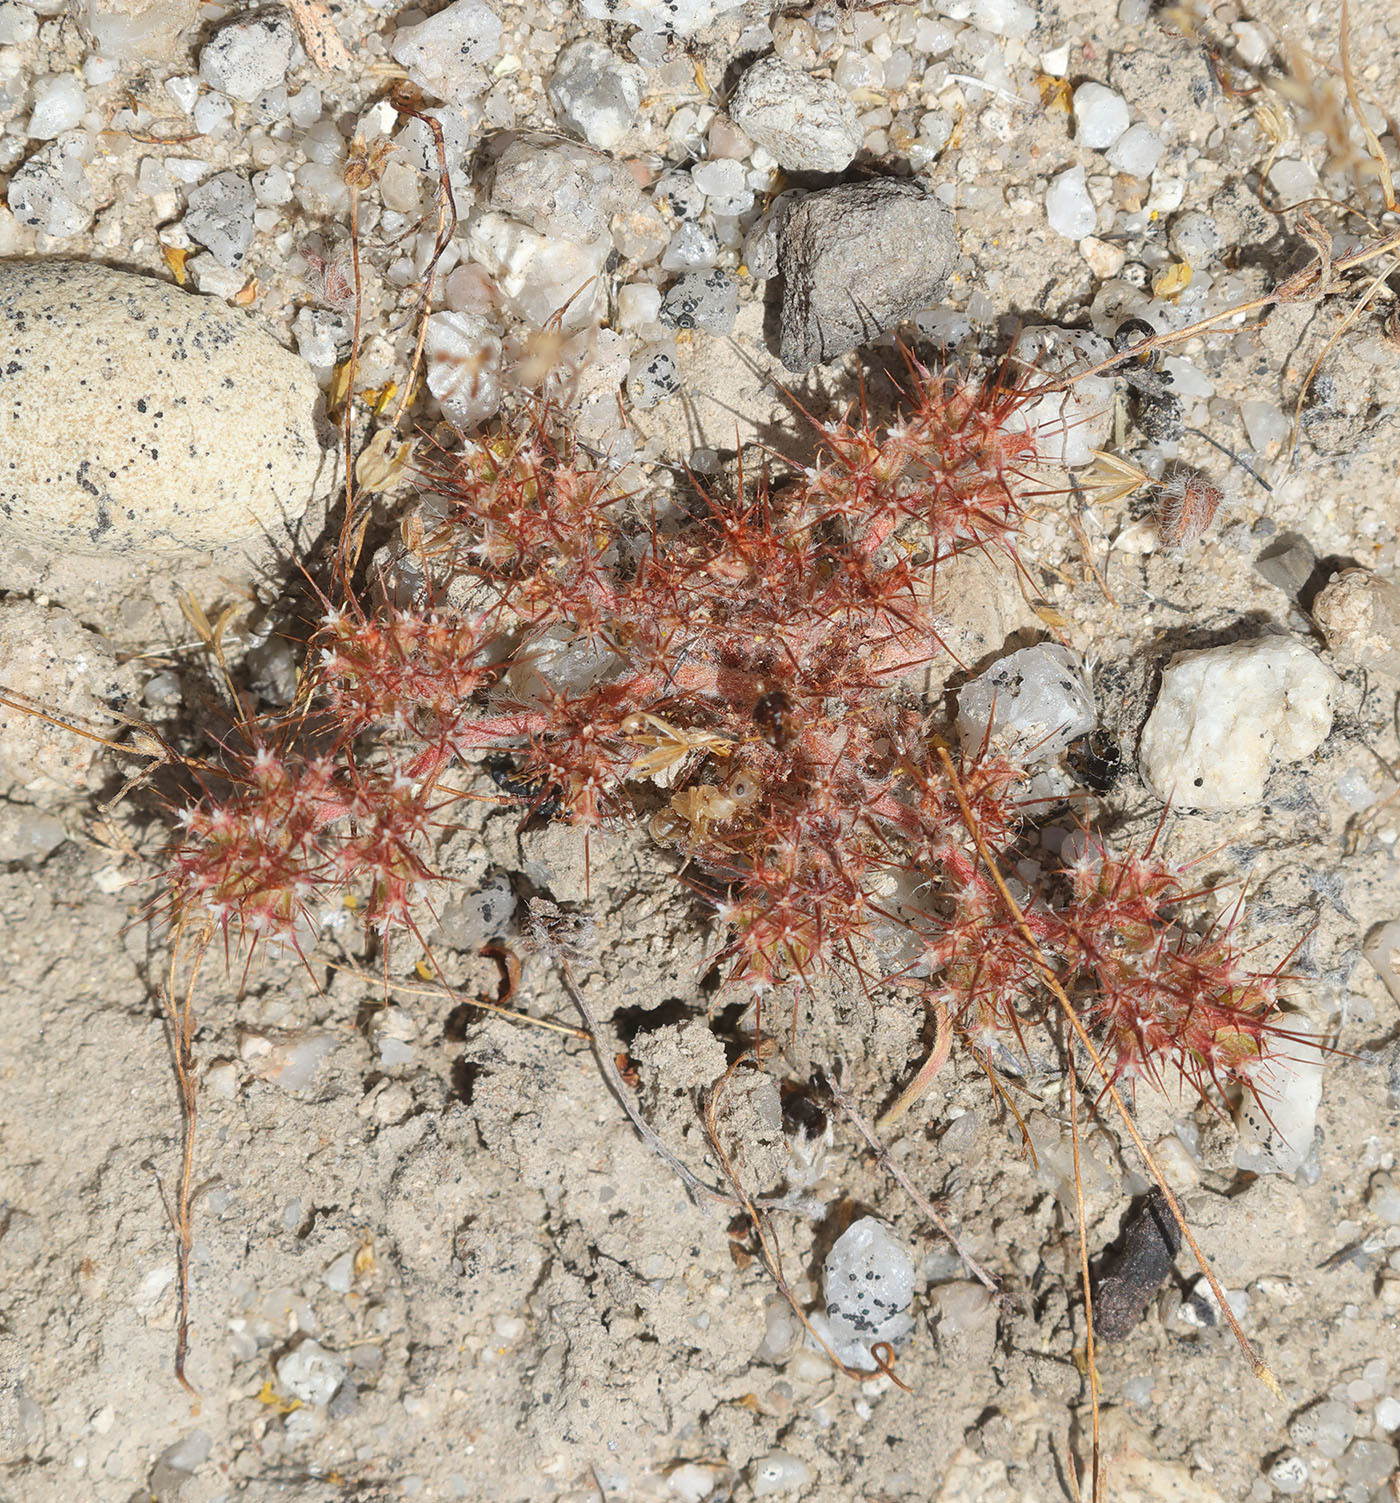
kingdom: Plantae
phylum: Tracheophyta
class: Magnoliopsida
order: Caryophyllales
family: Polygonaceae
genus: Chorizanthe
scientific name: Chorizanthe uniaristata
